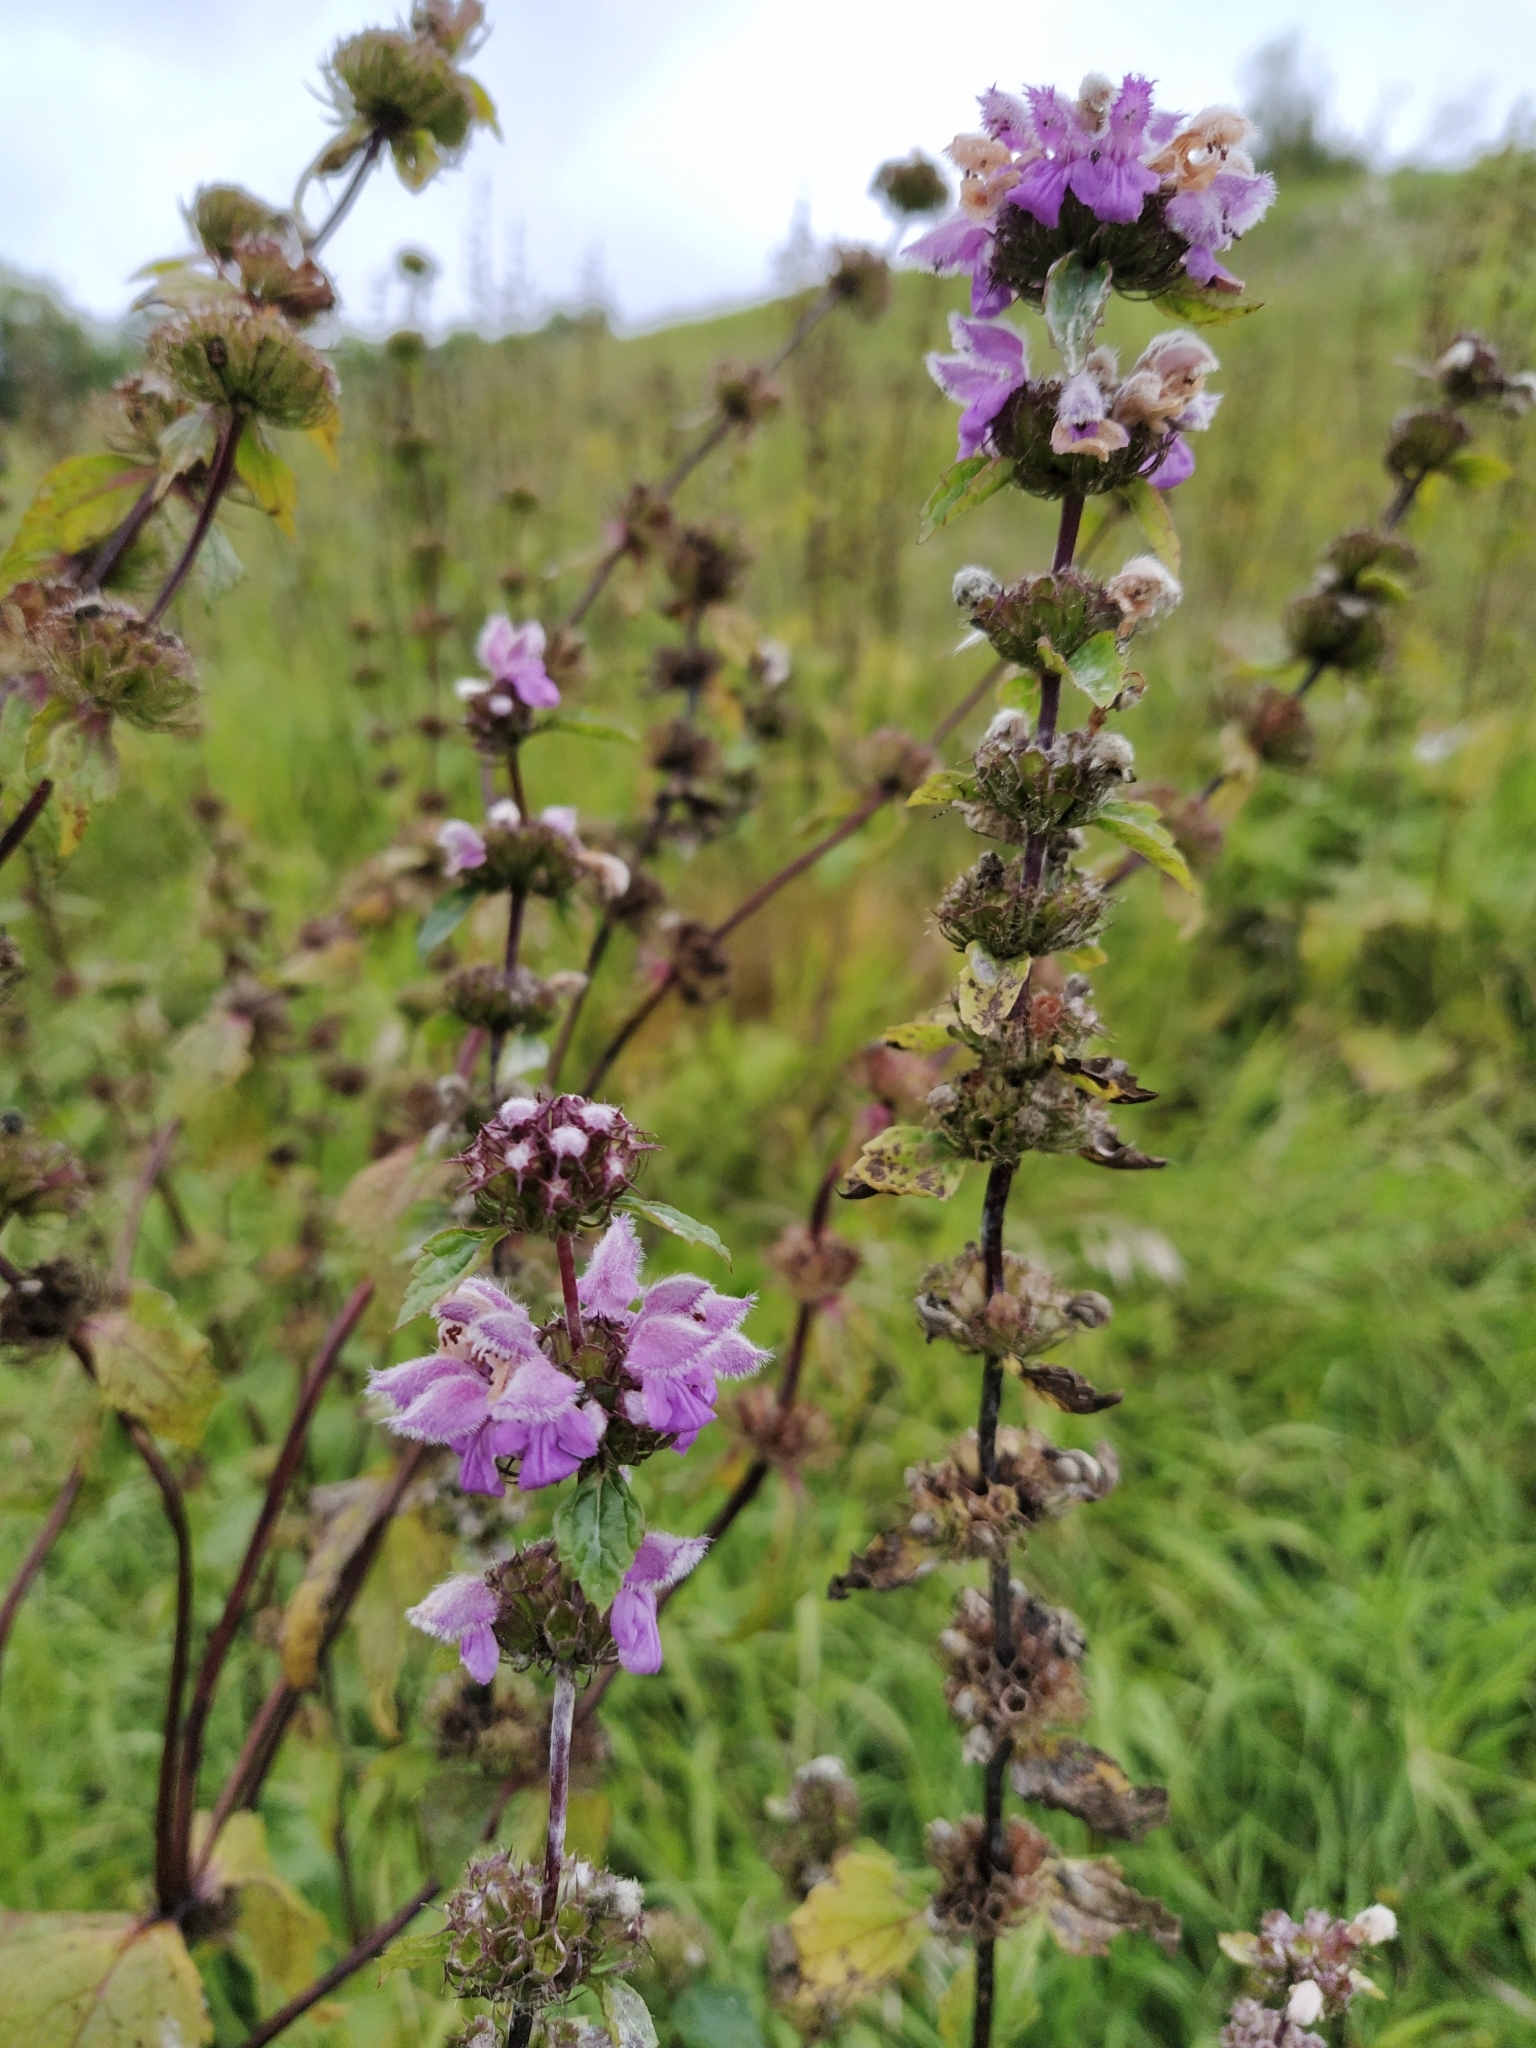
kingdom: Plantae
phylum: Tracheophyta
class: Magnoliopsida
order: Lamiales
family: Lamiaceae
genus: Phlomoides
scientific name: Phlomoides tuberosa
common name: Tuberous jerusalem sage
